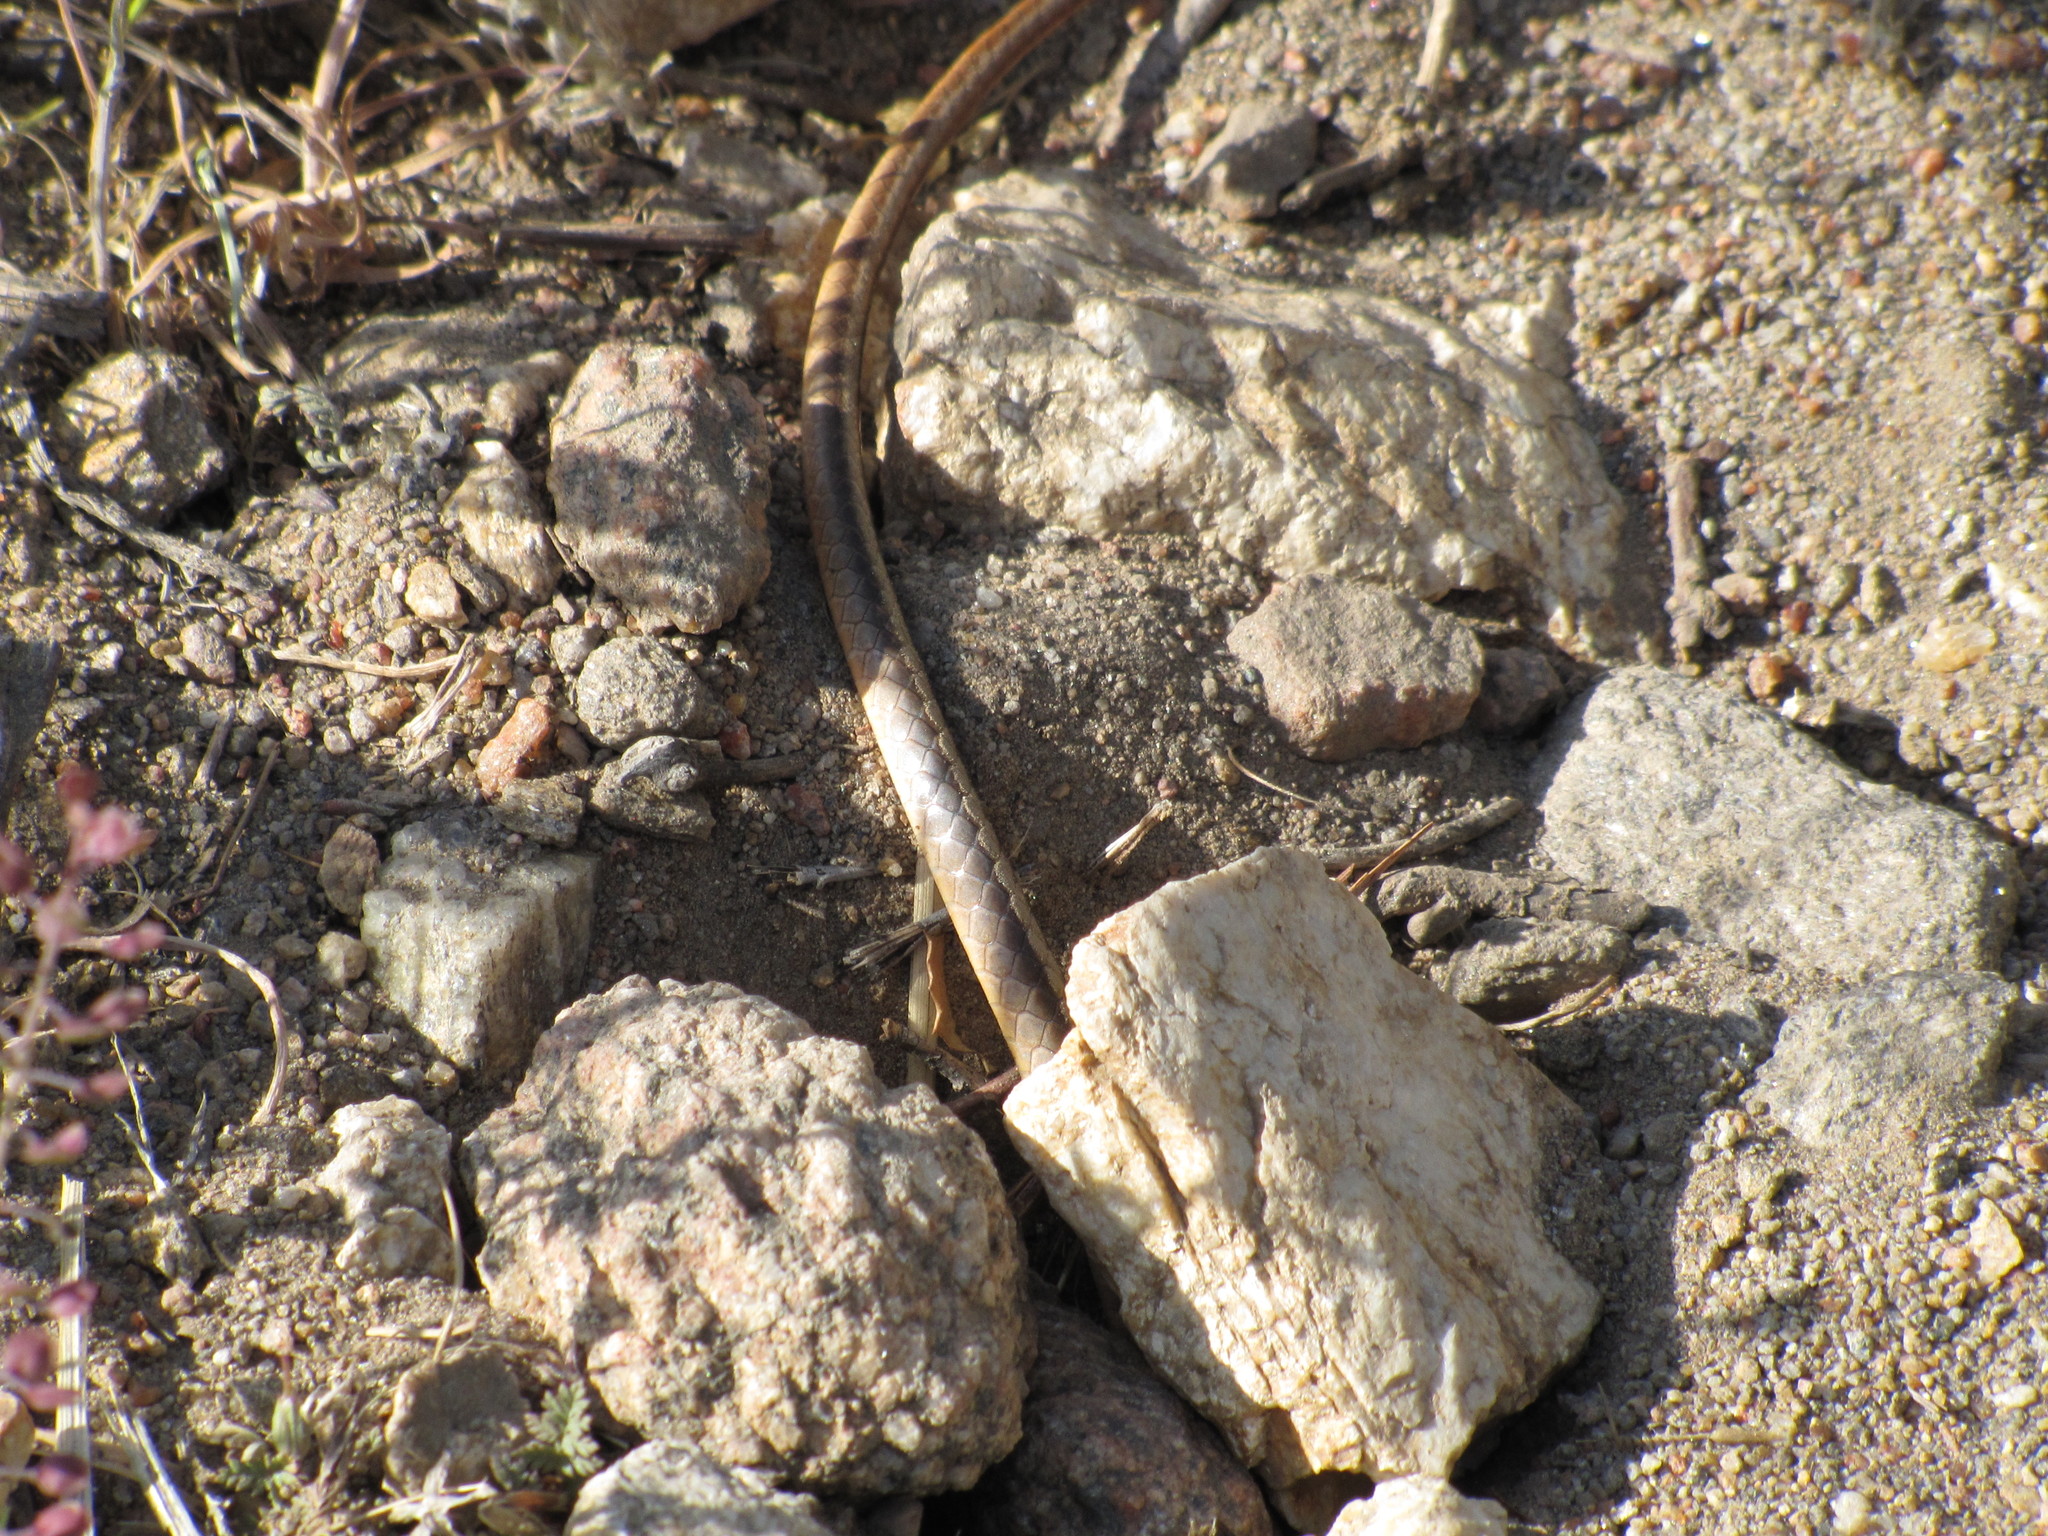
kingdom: Animalia
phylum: Chordata
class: Squamata
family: Colubridae
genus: Masticophis
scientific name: Masticophis lateralis
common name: Striped racer
